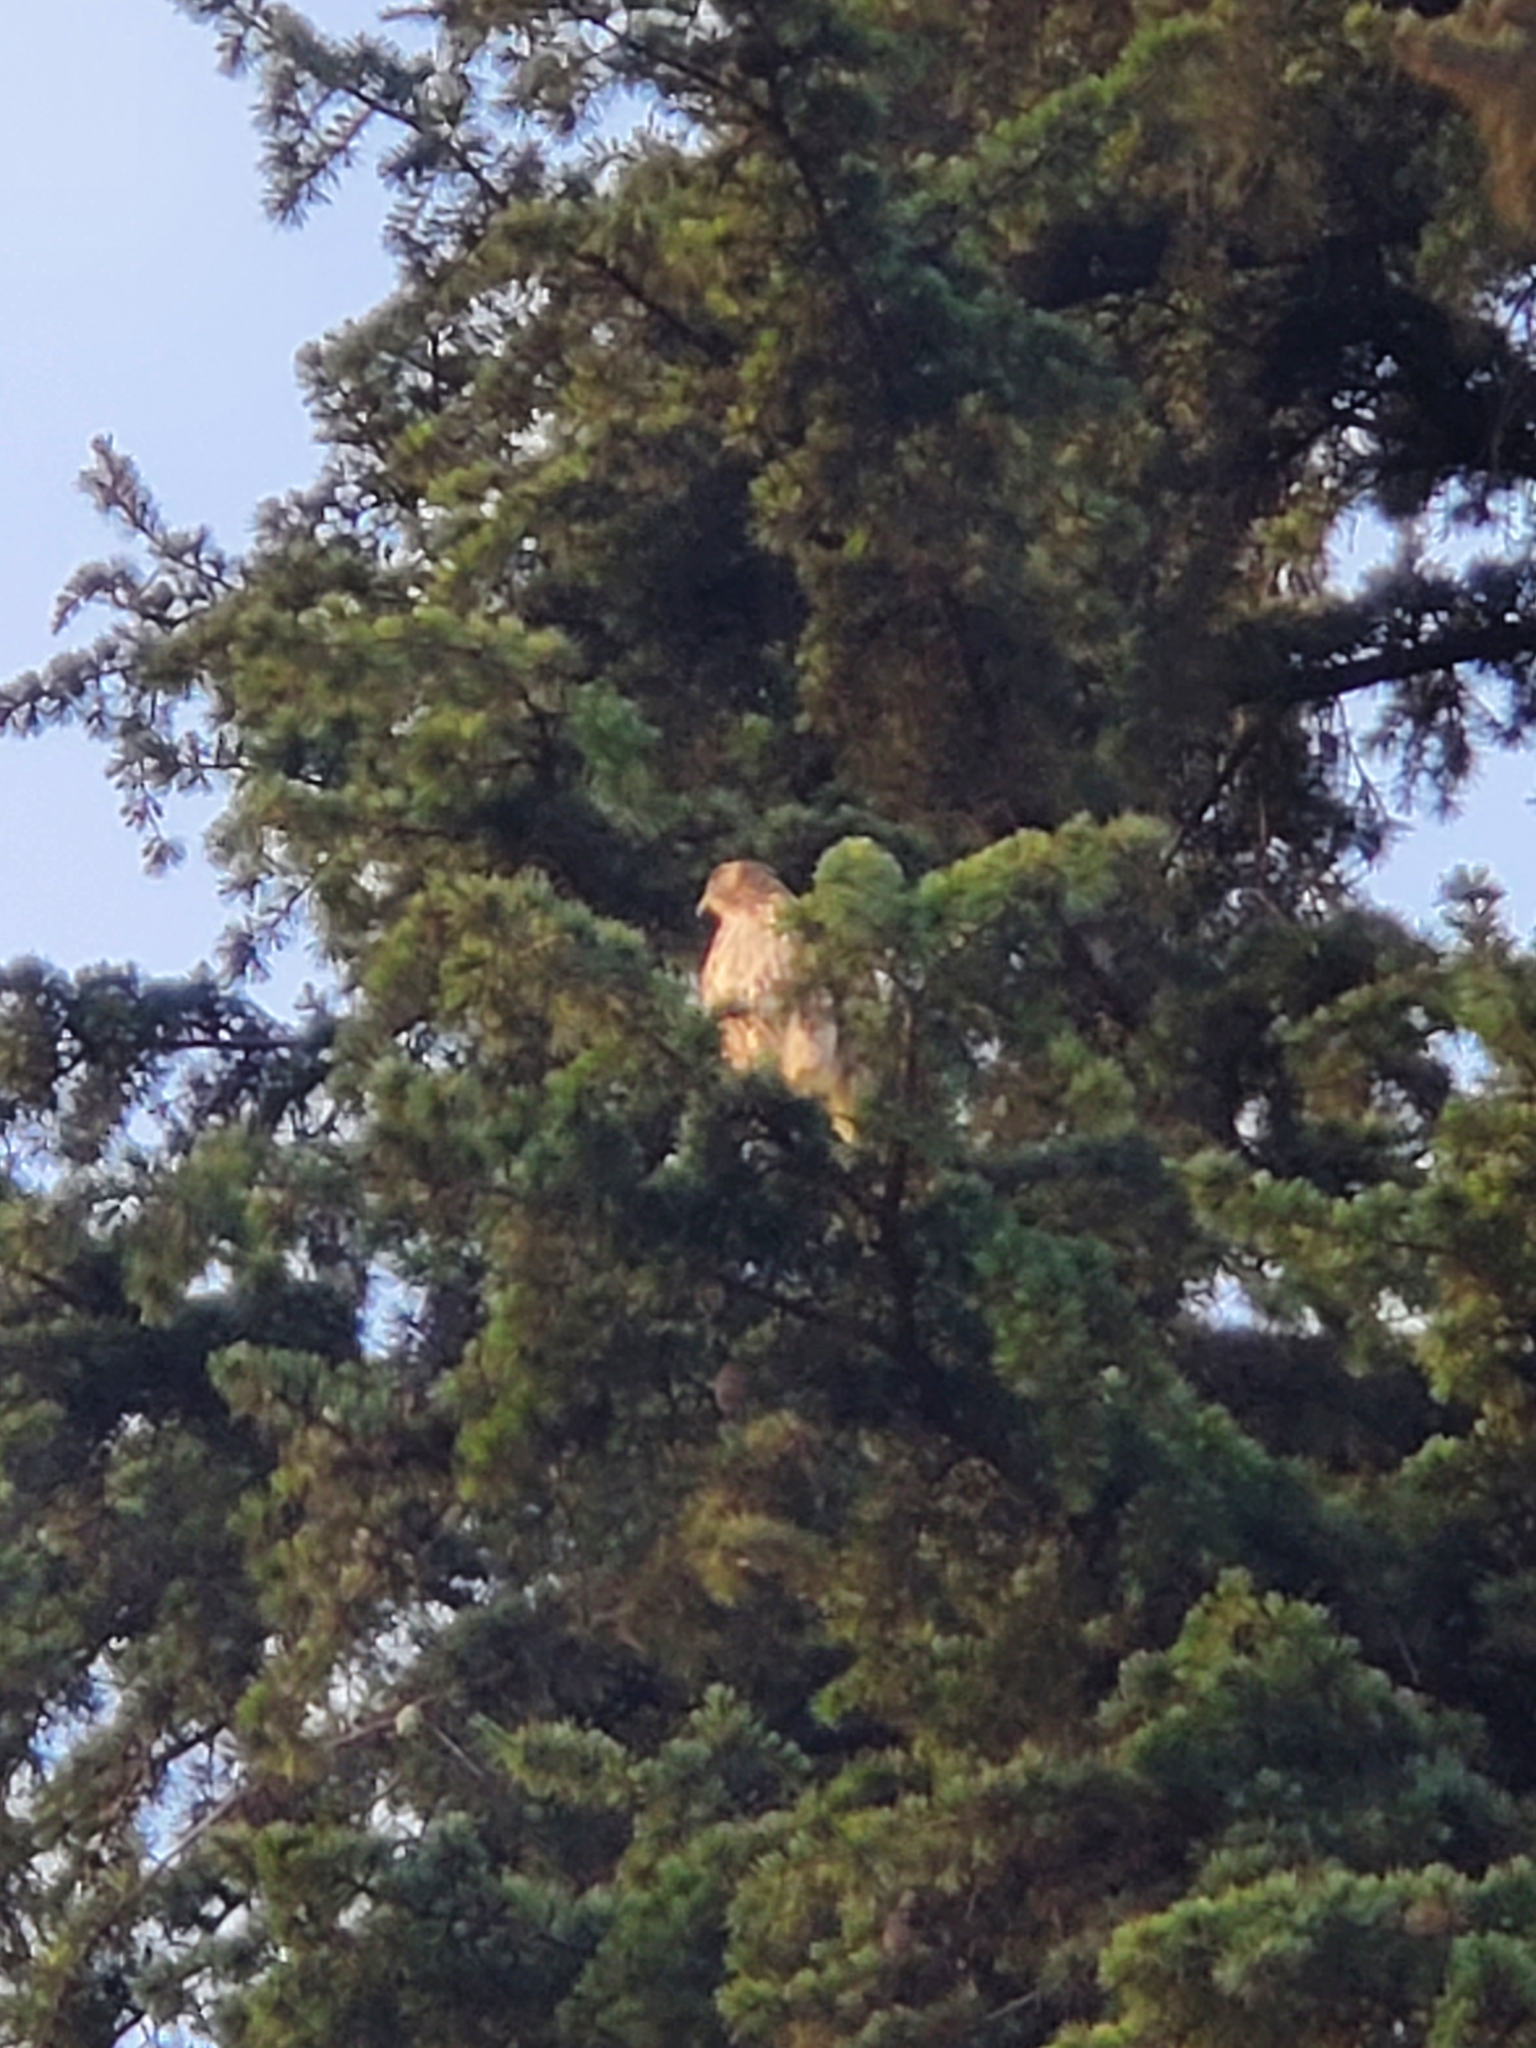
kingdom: Animalia
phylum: Chordata
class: Aves
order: Accipitriformes
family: Accipitridae
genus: Buteo
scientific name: Buteo jamaicensis
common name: Red-tailed hawk
